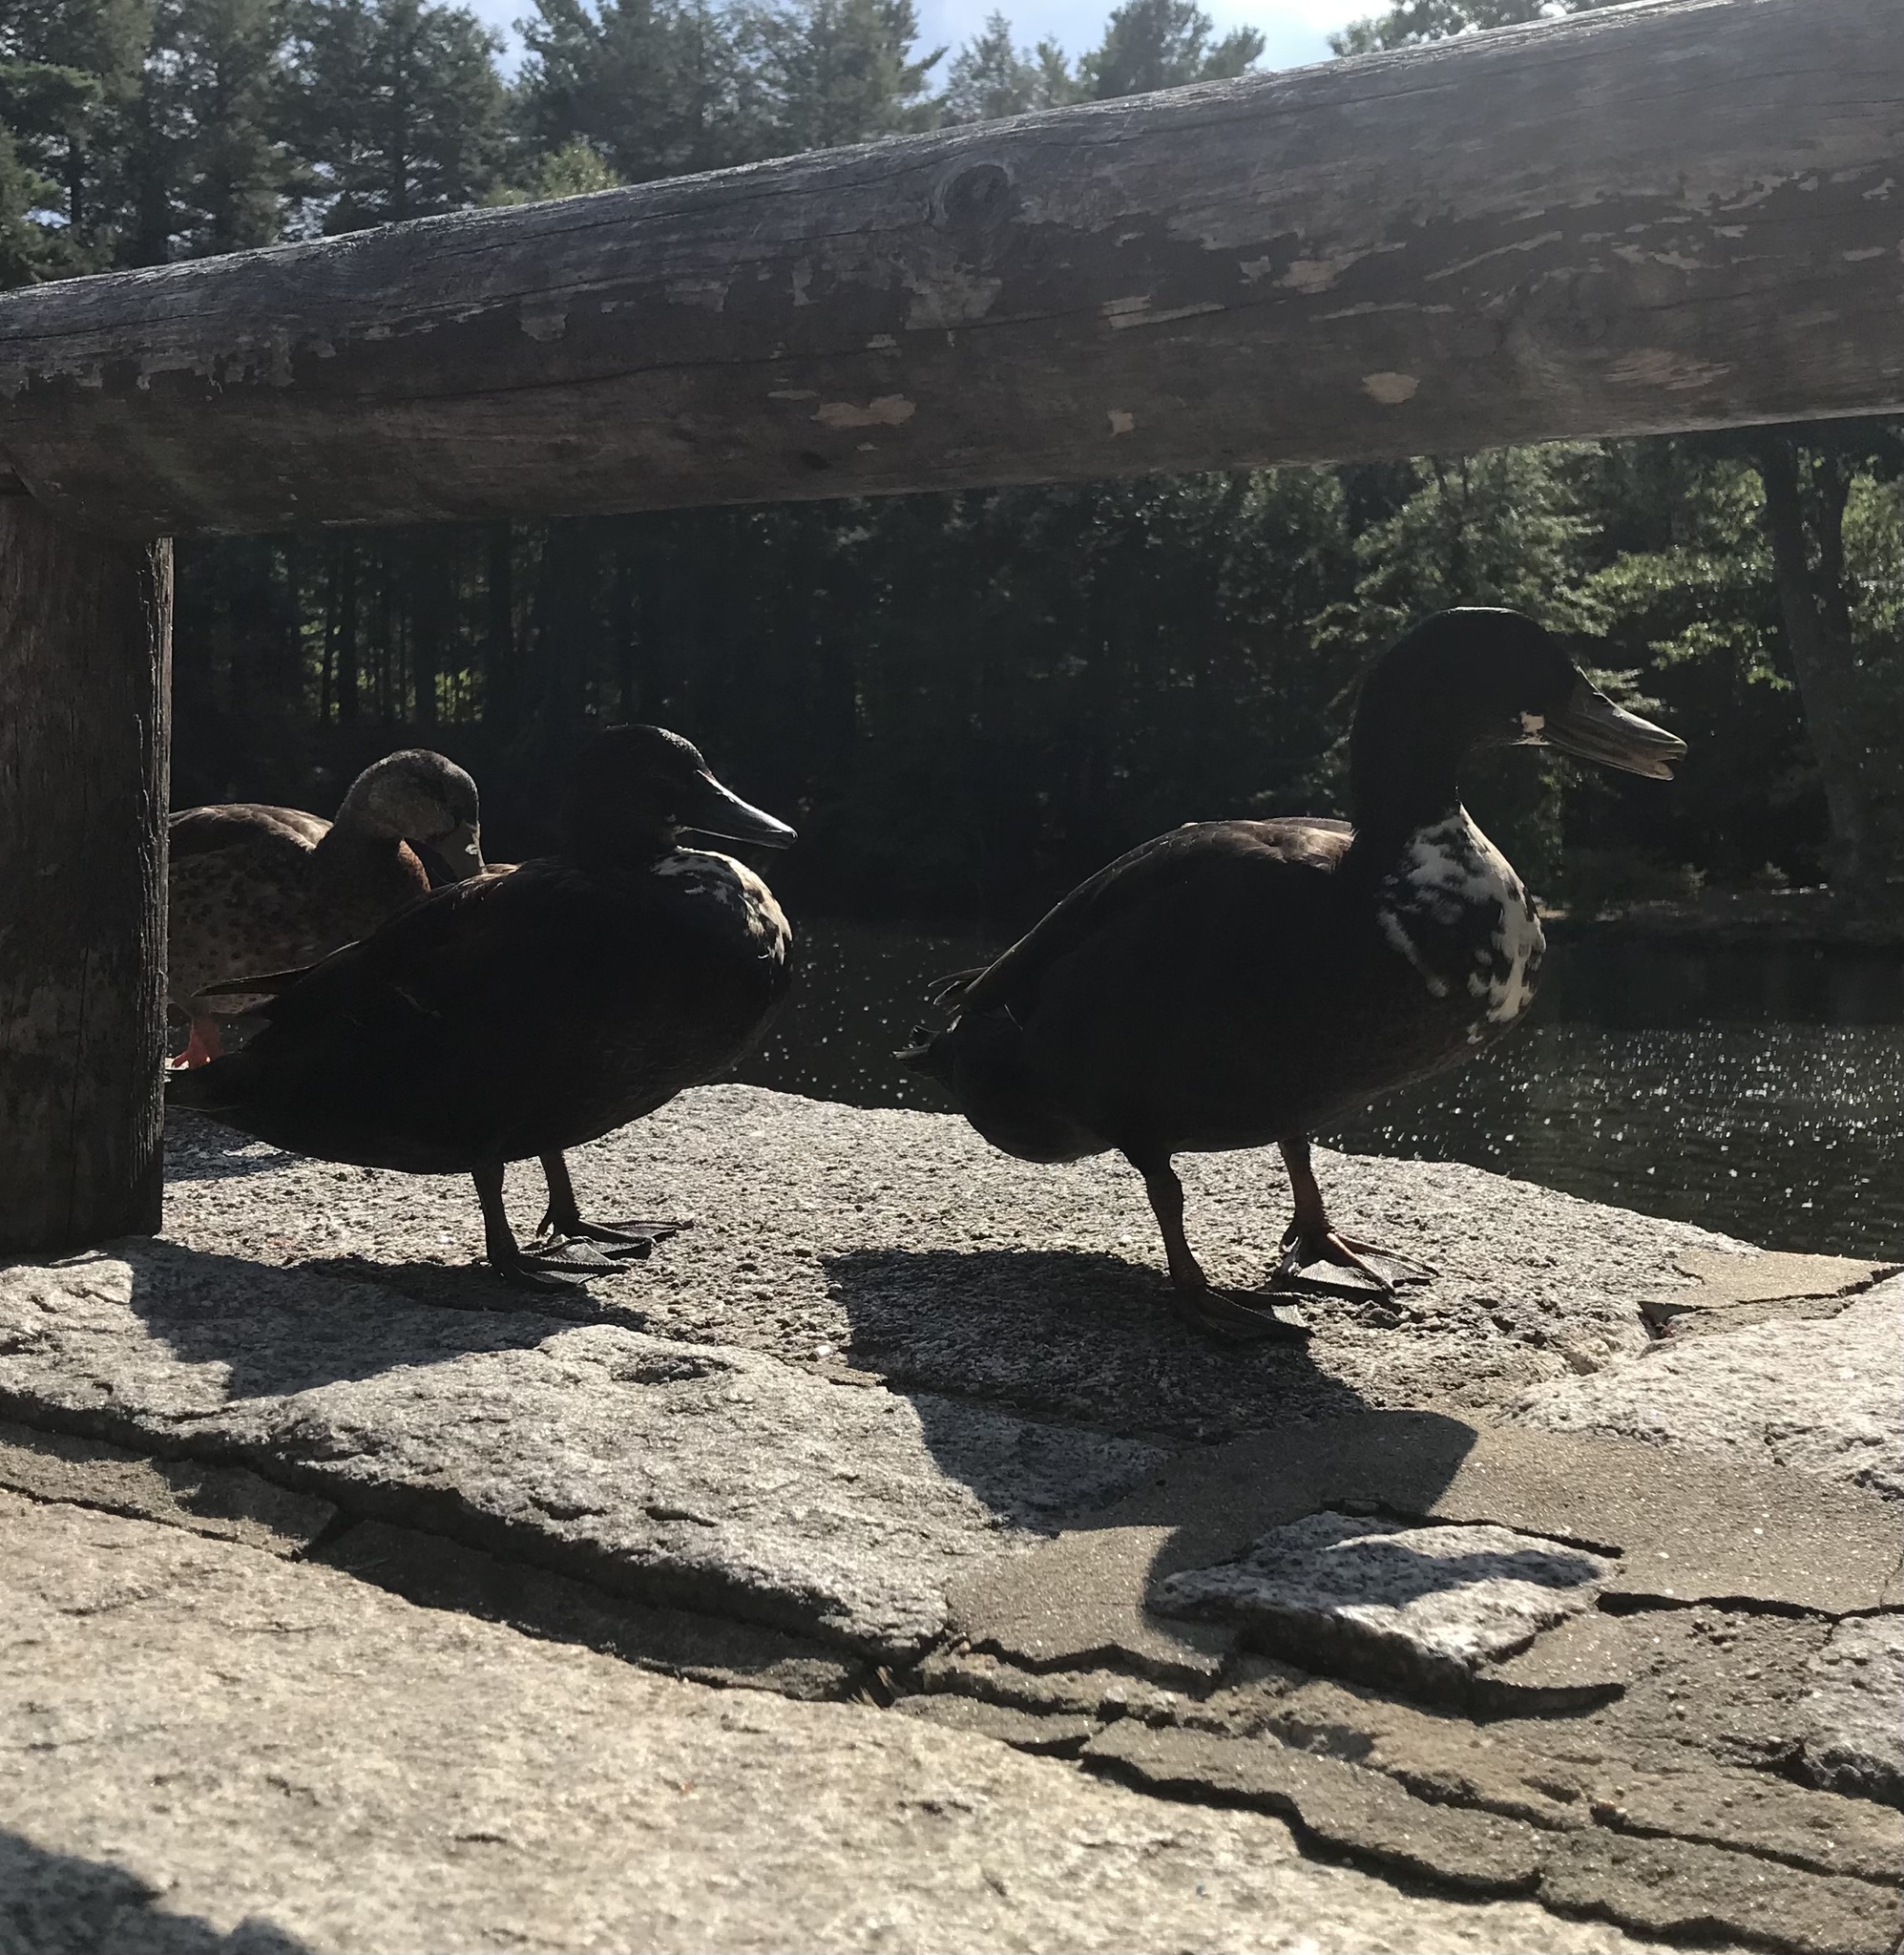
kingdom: Animalia
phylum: Chordata
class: Aves
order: Anseriformes
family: Anatidae
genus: Anas
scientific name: Anas platyrhynchos
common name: Mallard
